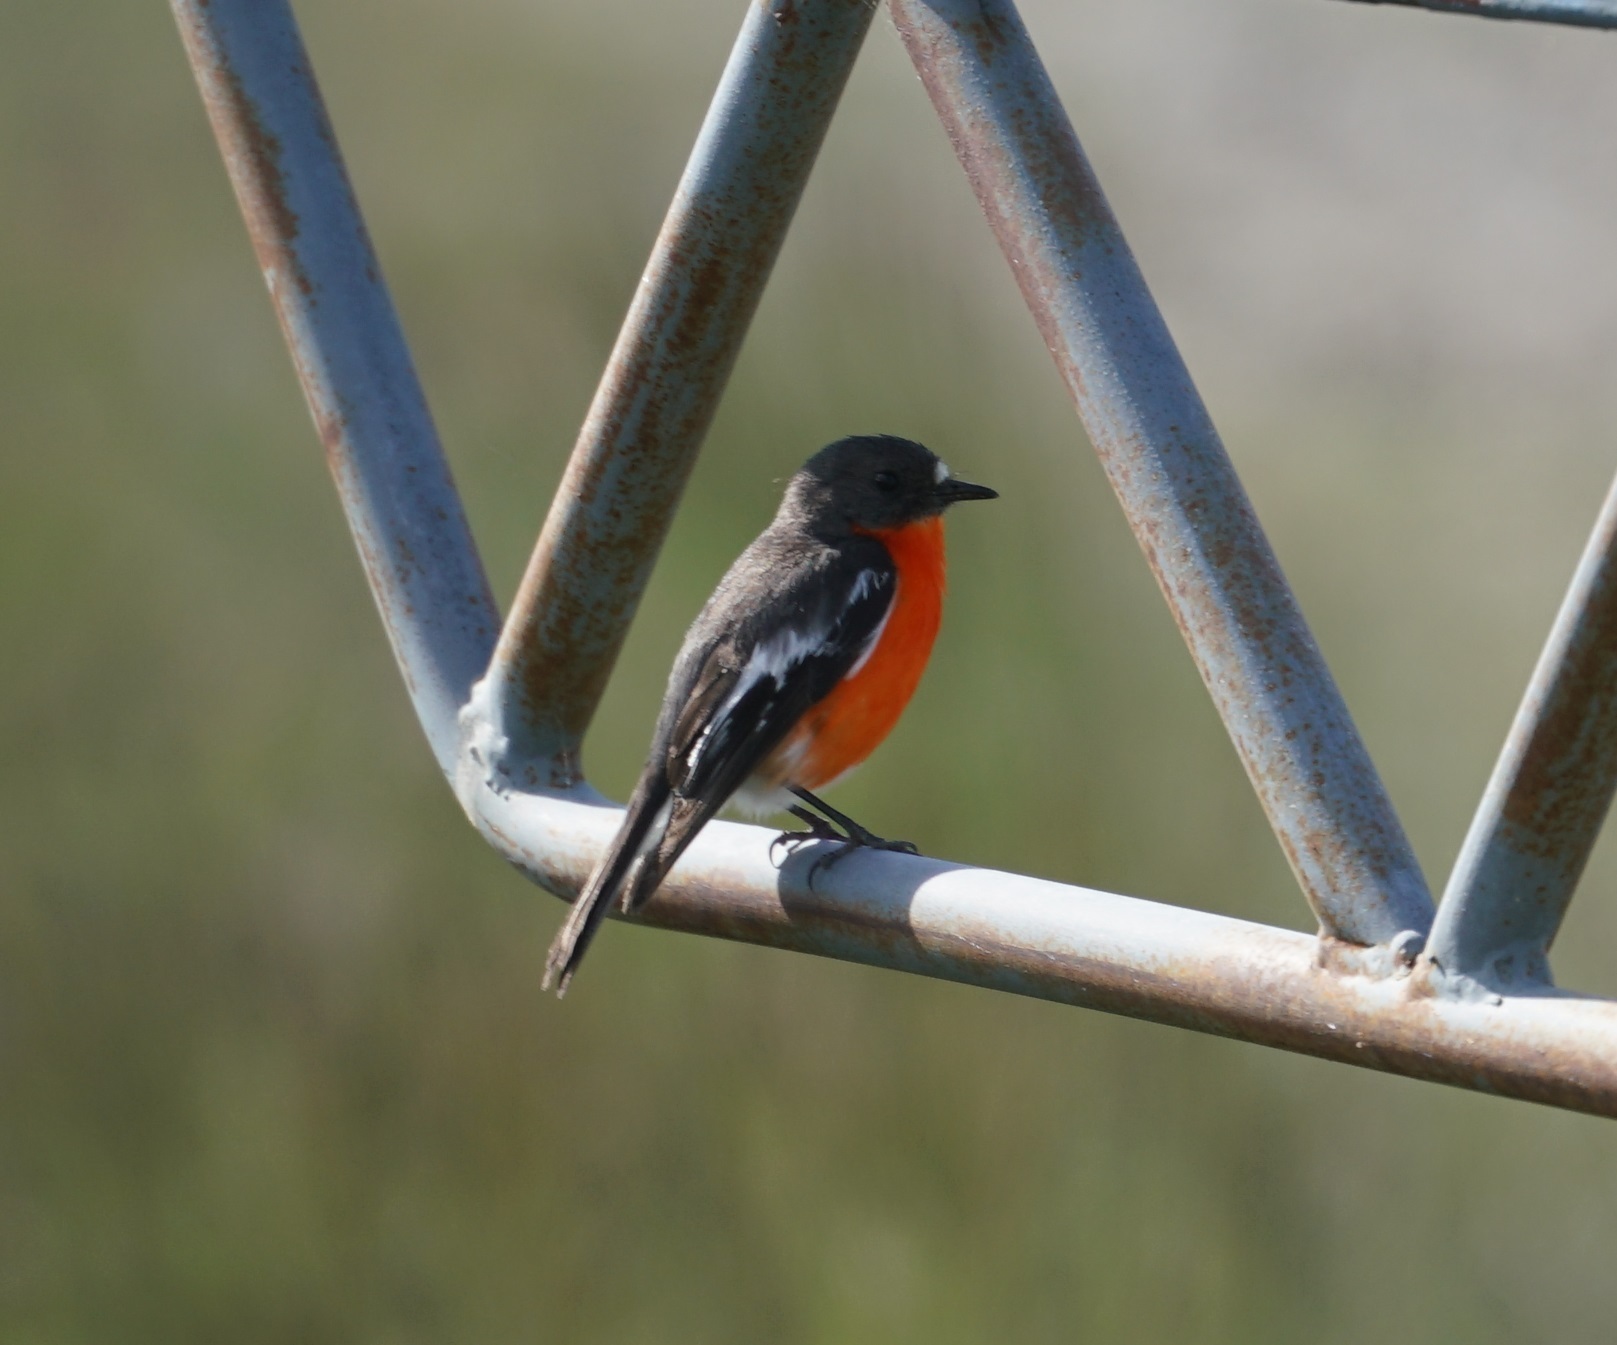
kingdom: Animalia
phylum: Chordata
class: Aves
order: Passeriformes
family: Petroicidae
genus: Petroica
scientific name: Petroica phoenicea
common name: Flame robin
